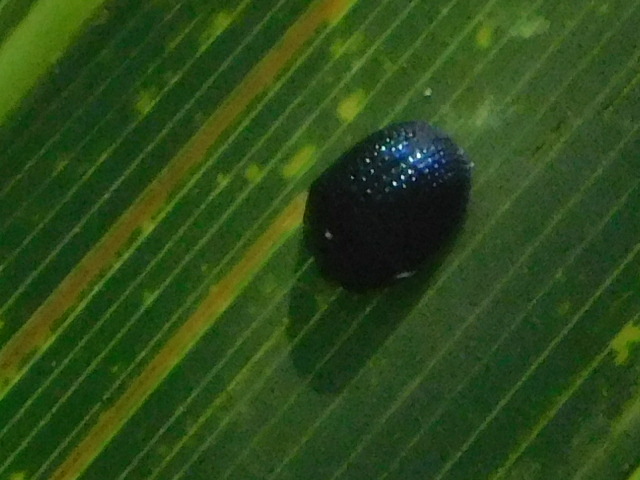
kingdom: Animalia
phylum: Arthropoda
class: Insecta
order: Coleoptera
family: Chrysomelidae
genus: Hemisphaerota
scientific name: Hemisphaerota cyanea
